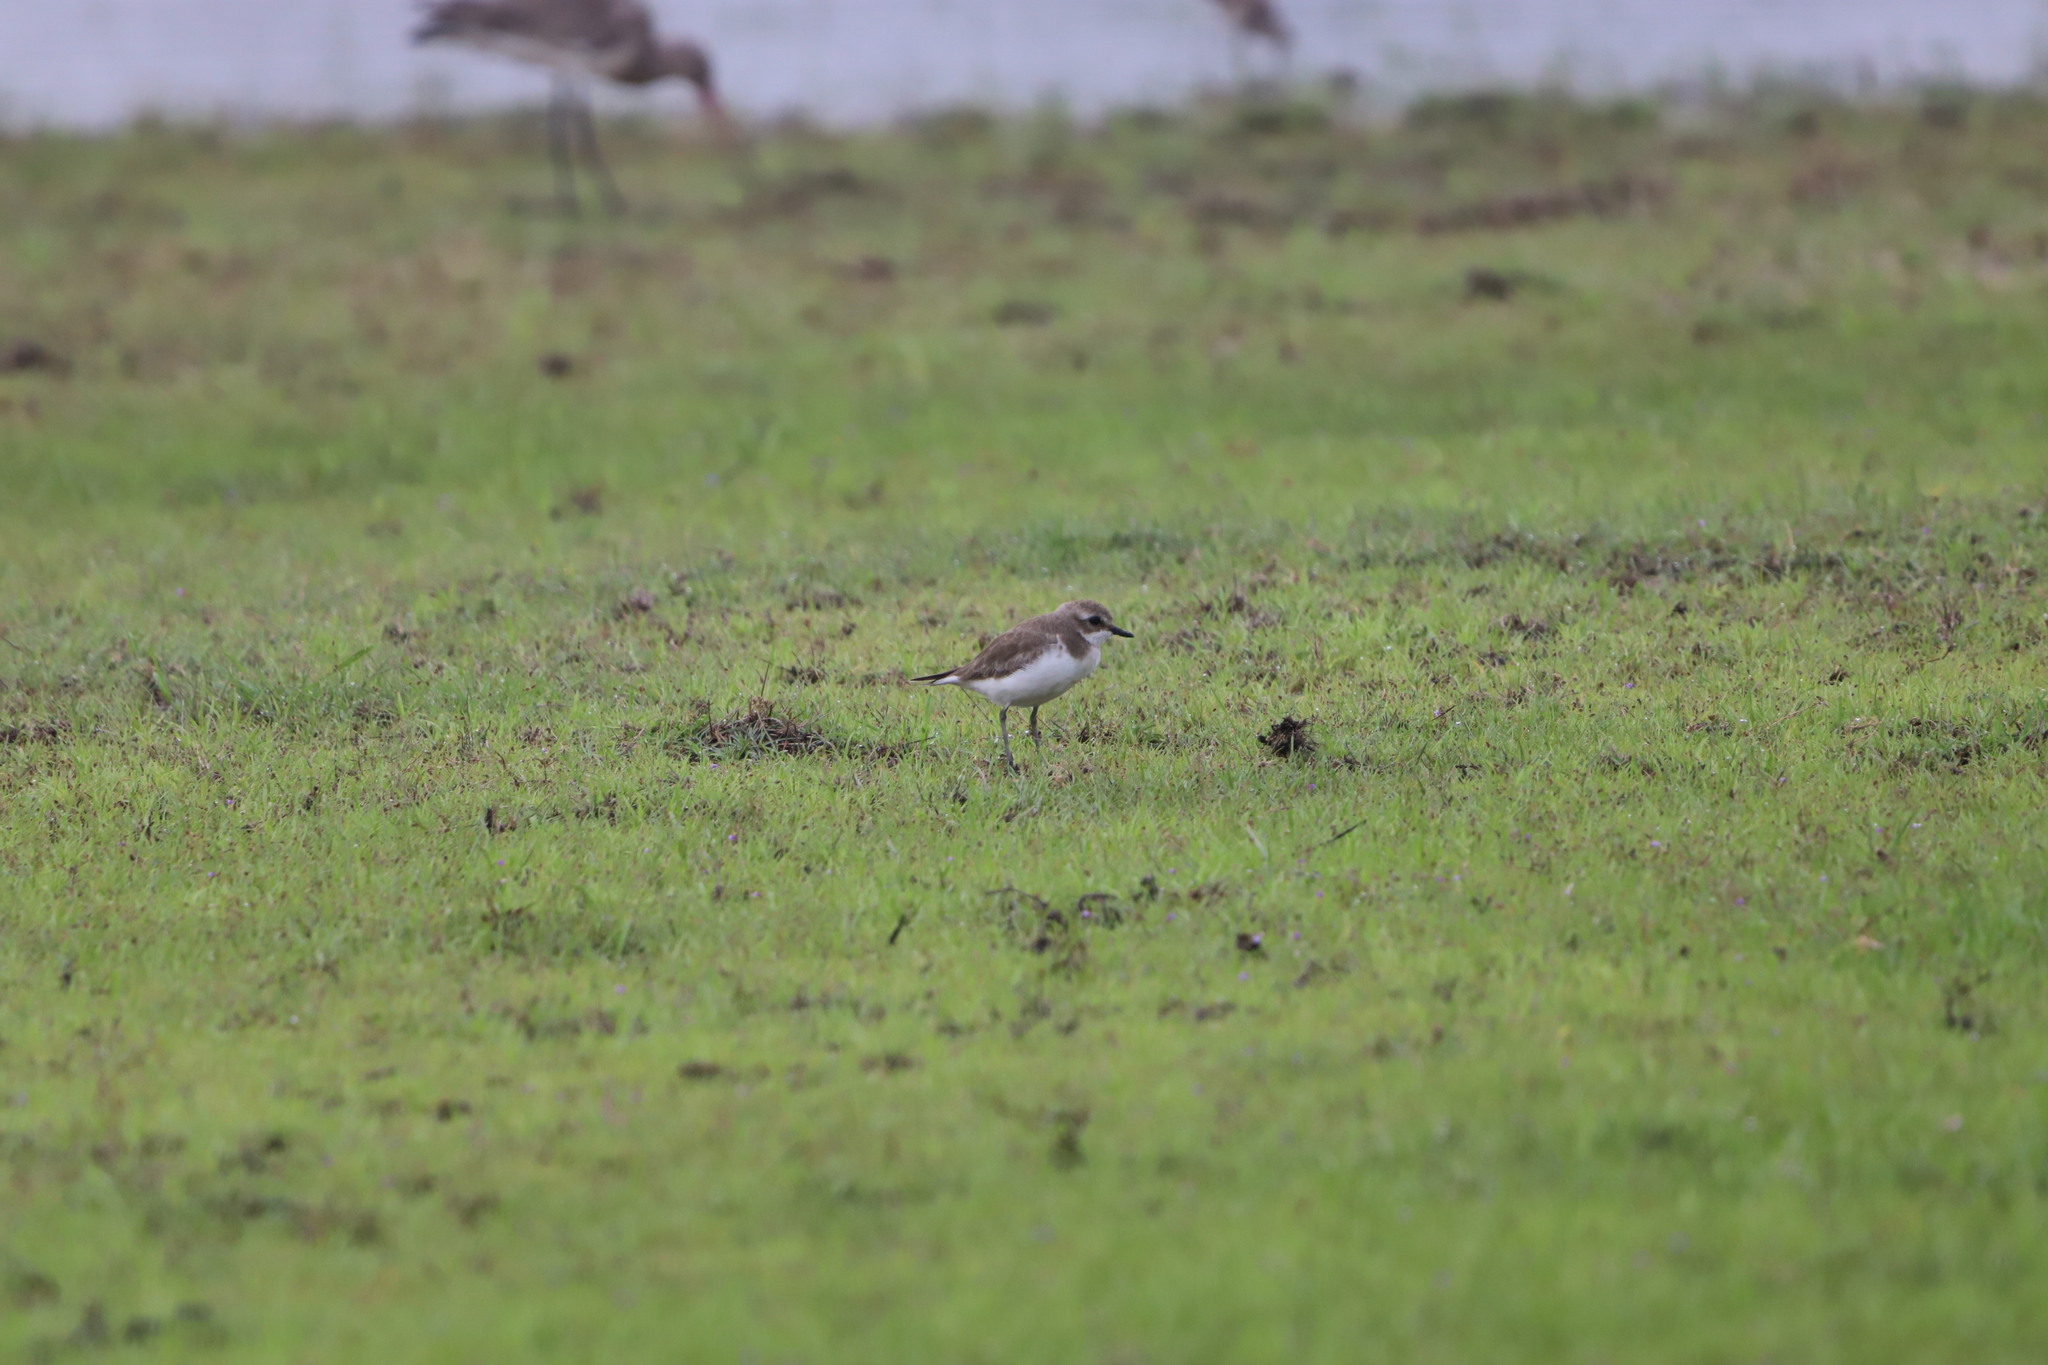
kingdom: Animalia
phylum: Chordata
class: Aves
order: Charadriiformes
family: Charadriidae
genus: Anarhynchus
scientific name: Anarhynchus
